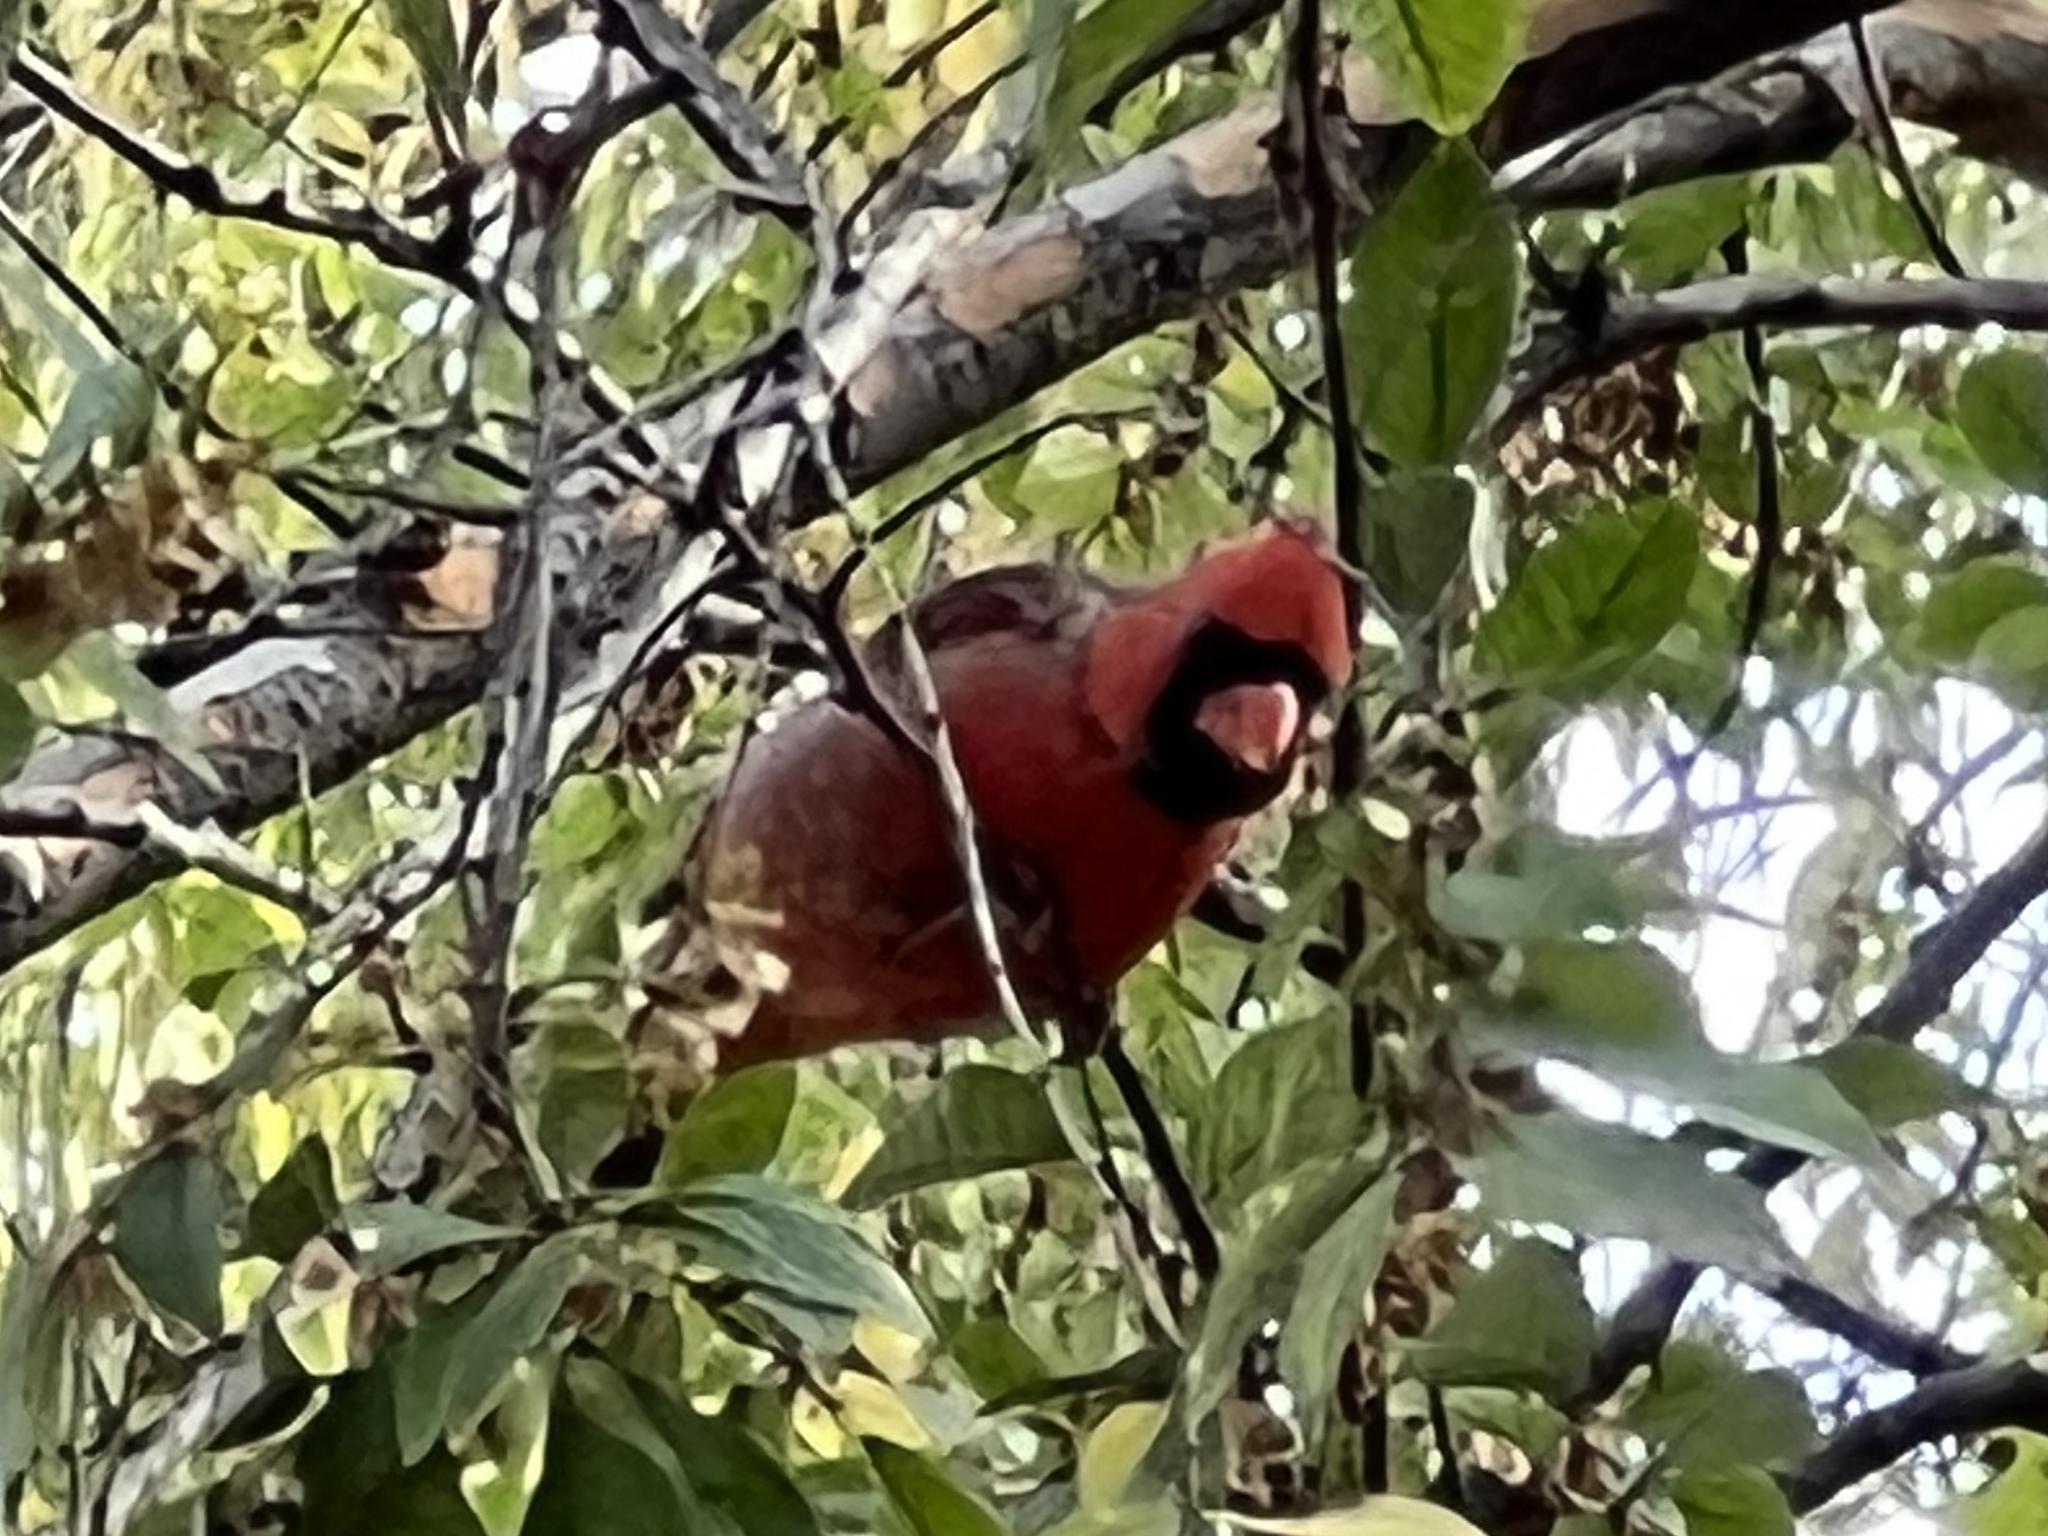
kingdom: Animalia
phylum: Chordata
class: Aves
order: Passeriformes
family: Cardinalidae
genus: Cardinalis
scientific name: Cardinalis cardinalis
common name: Northern cardinal
